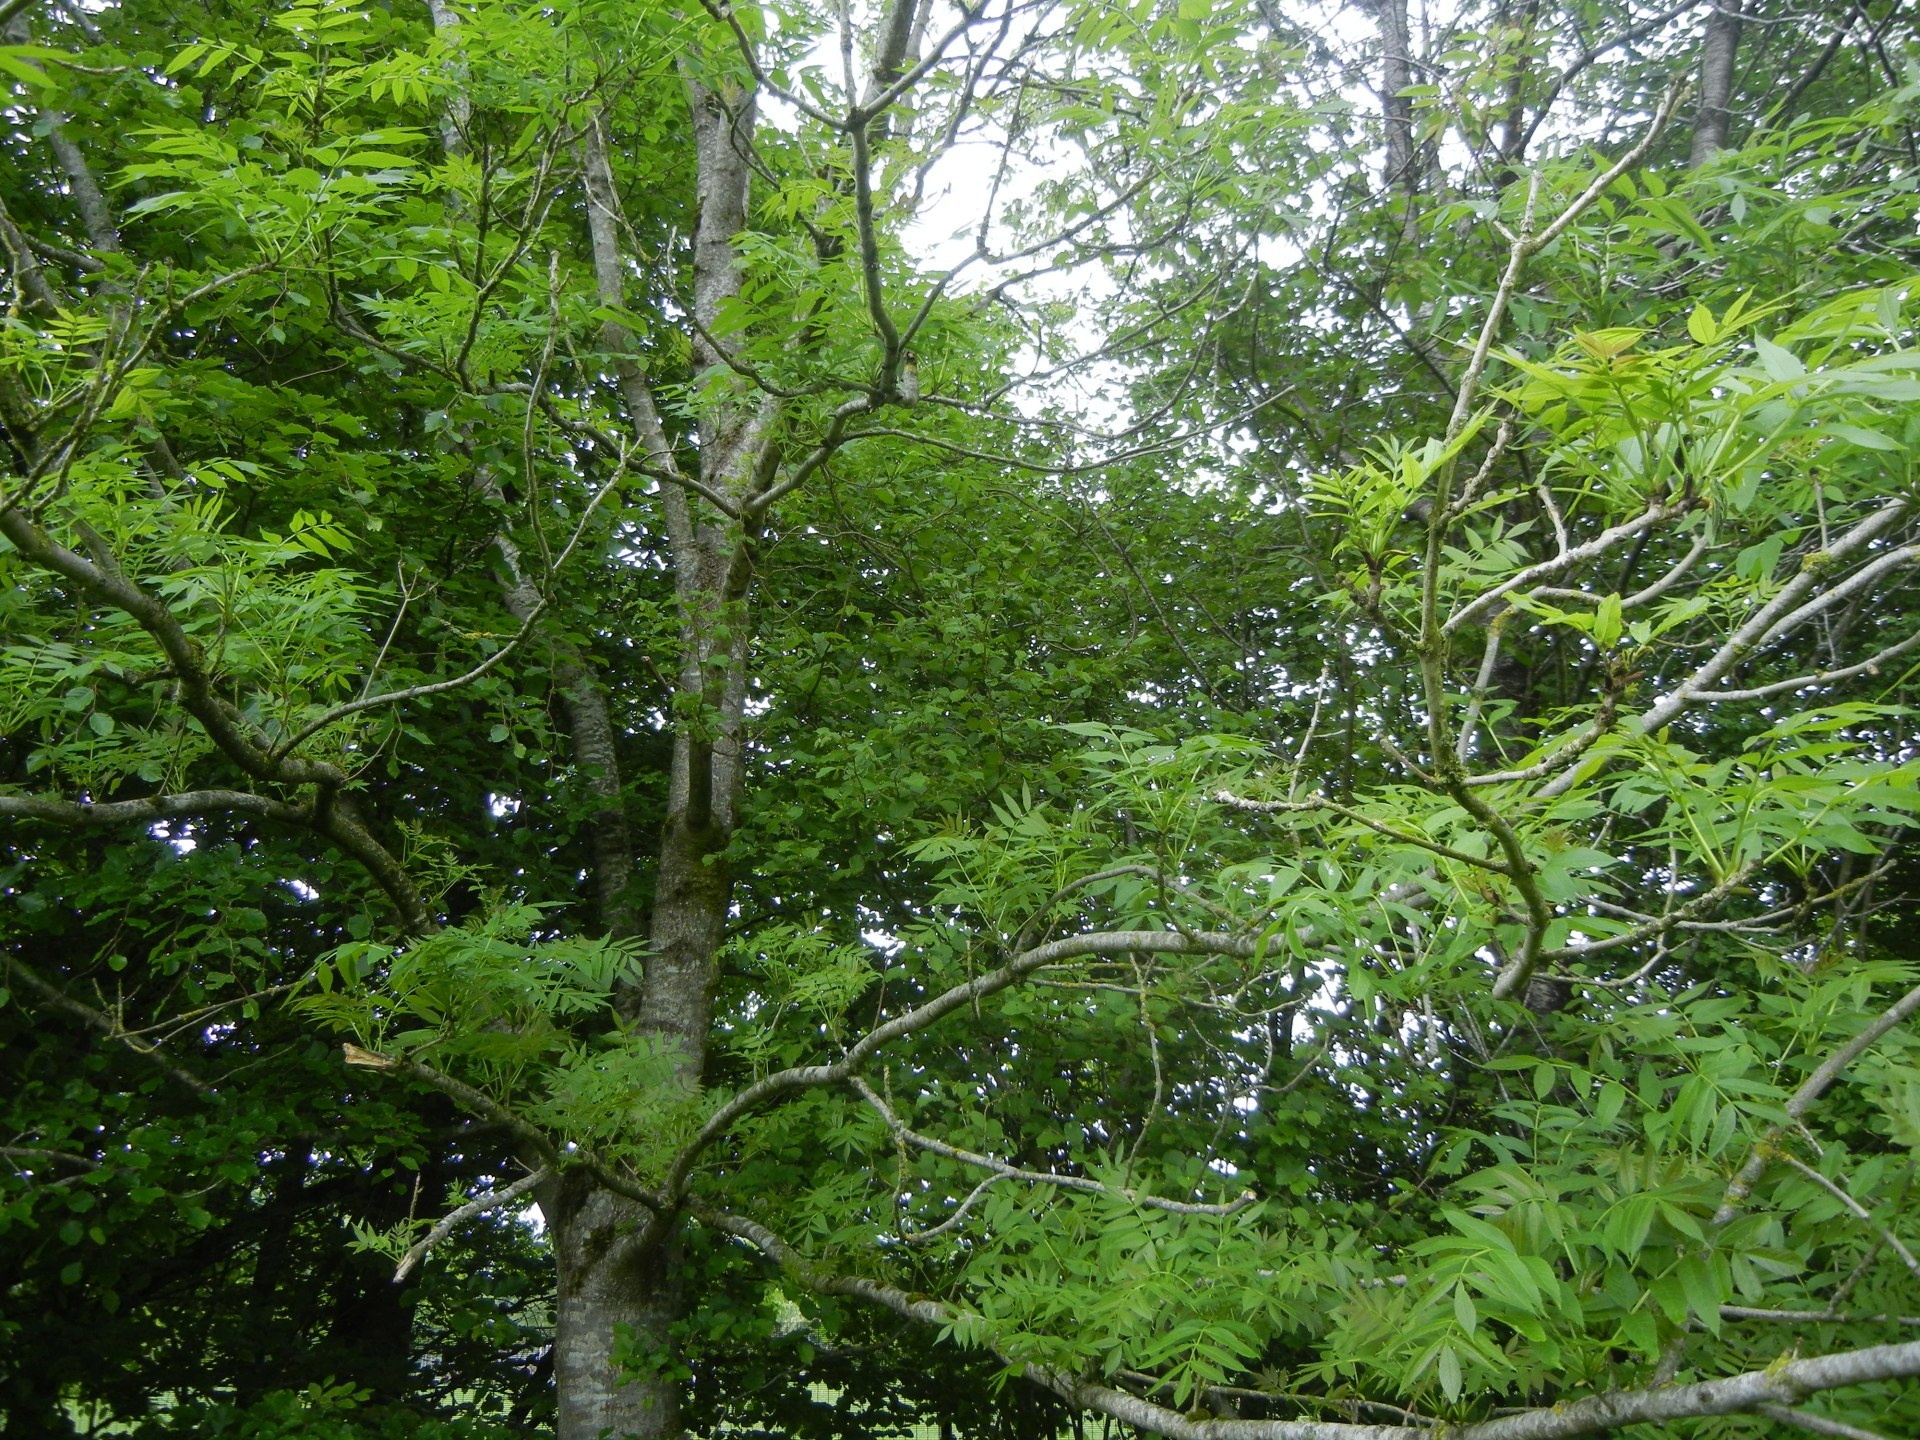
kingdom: Plantae
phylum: Tracheophyta
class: Magnoliopsida
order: Lamiales
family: Oleaceae
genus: Fraxinus
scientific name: Fraxinus excelsior
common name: European ash
